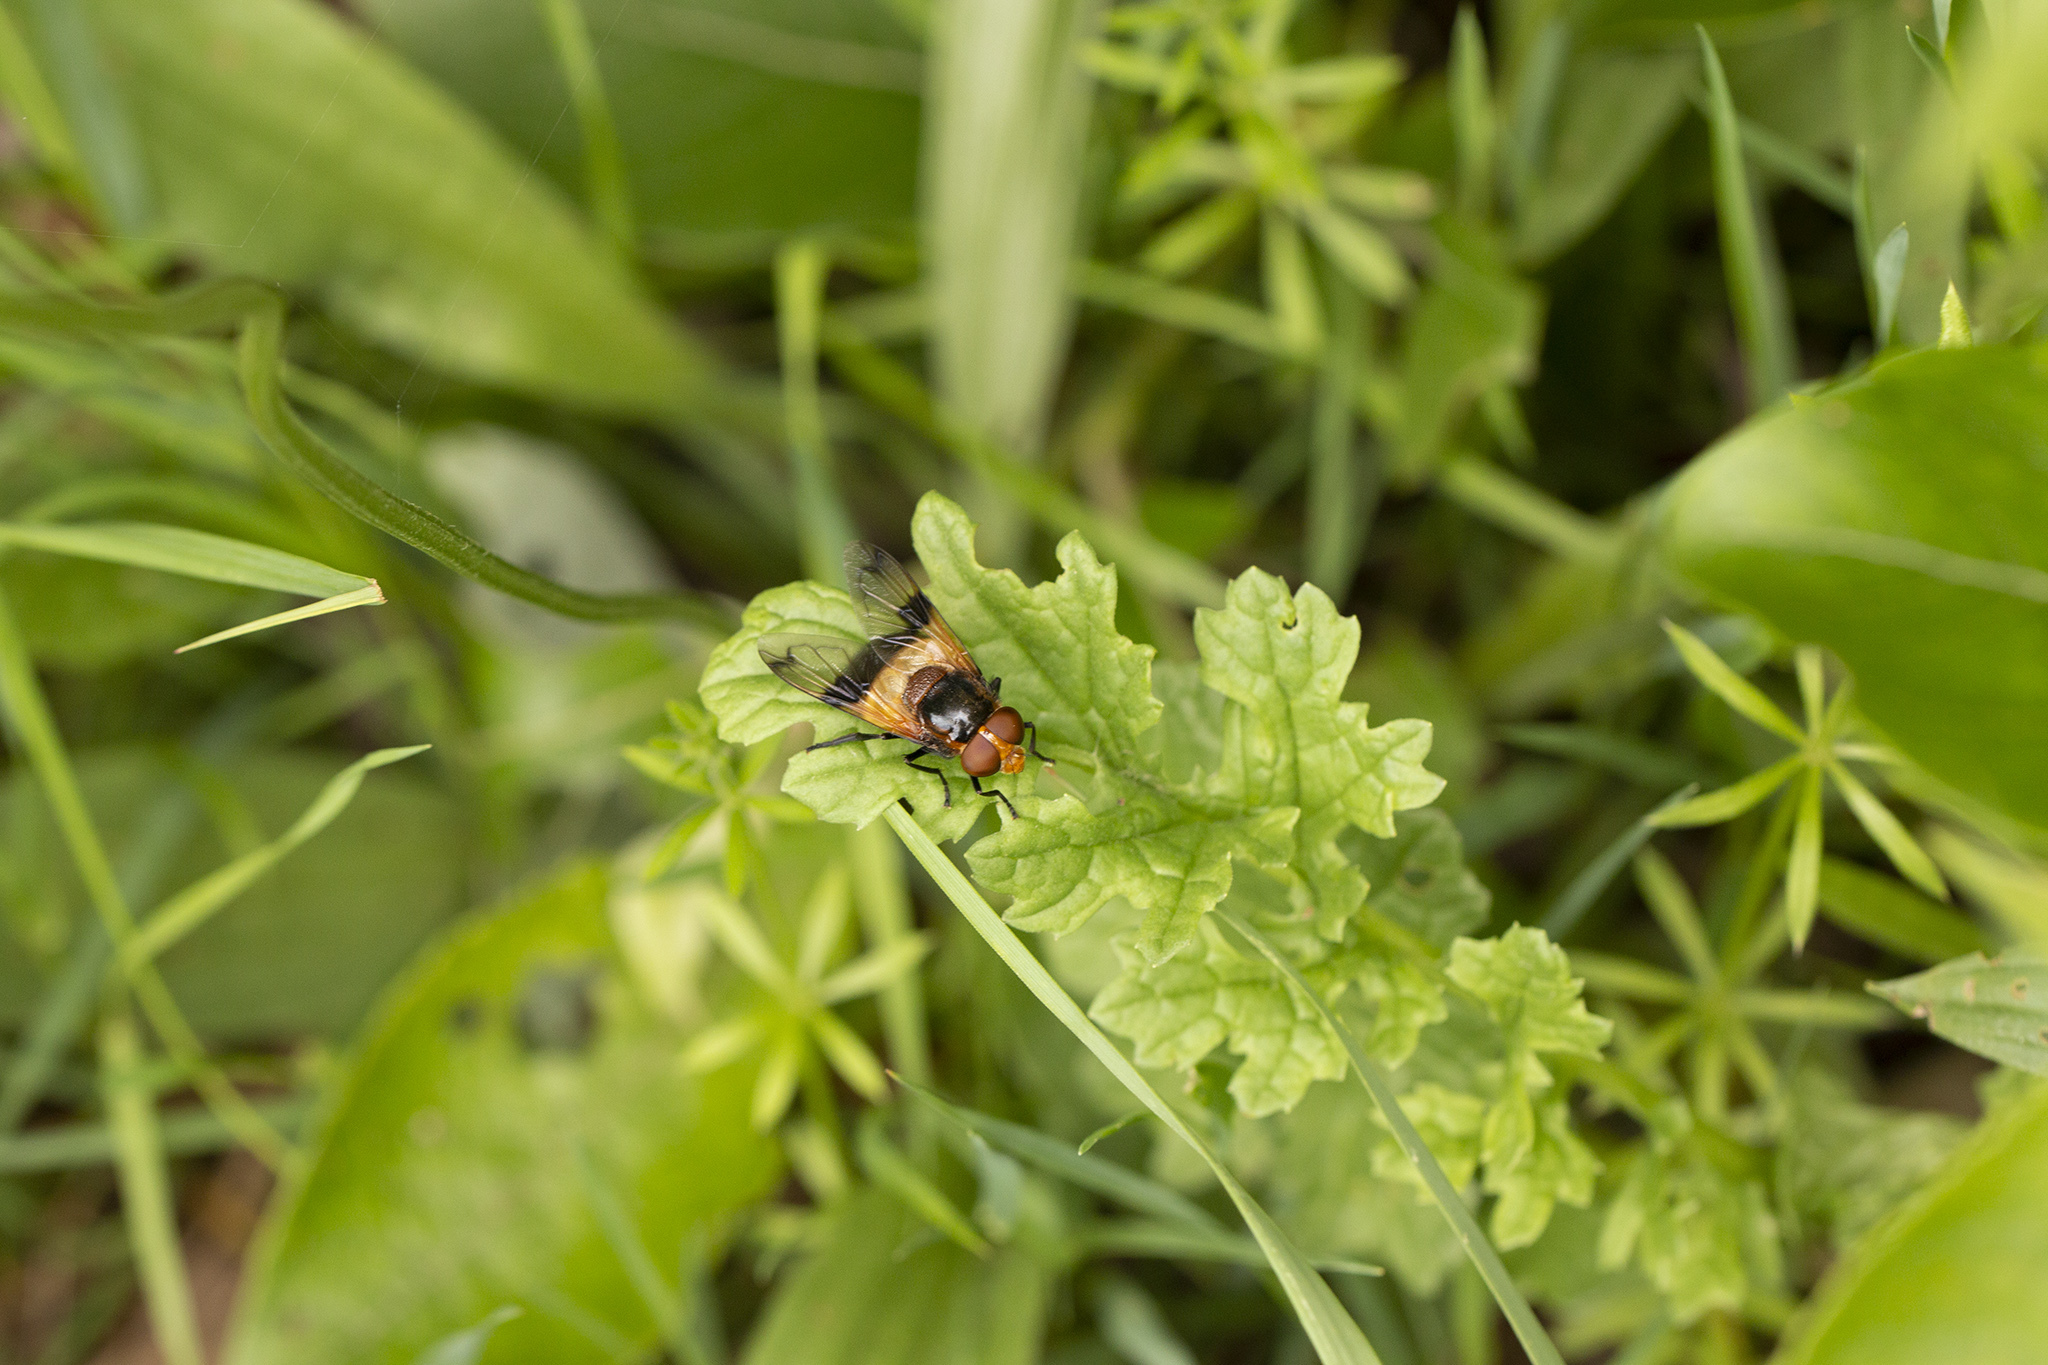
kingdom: Animalia
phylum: Arthropoda
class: Insecta
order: Diptera
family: Syrphidae
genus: Volucella
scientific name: Volucella pellucens
